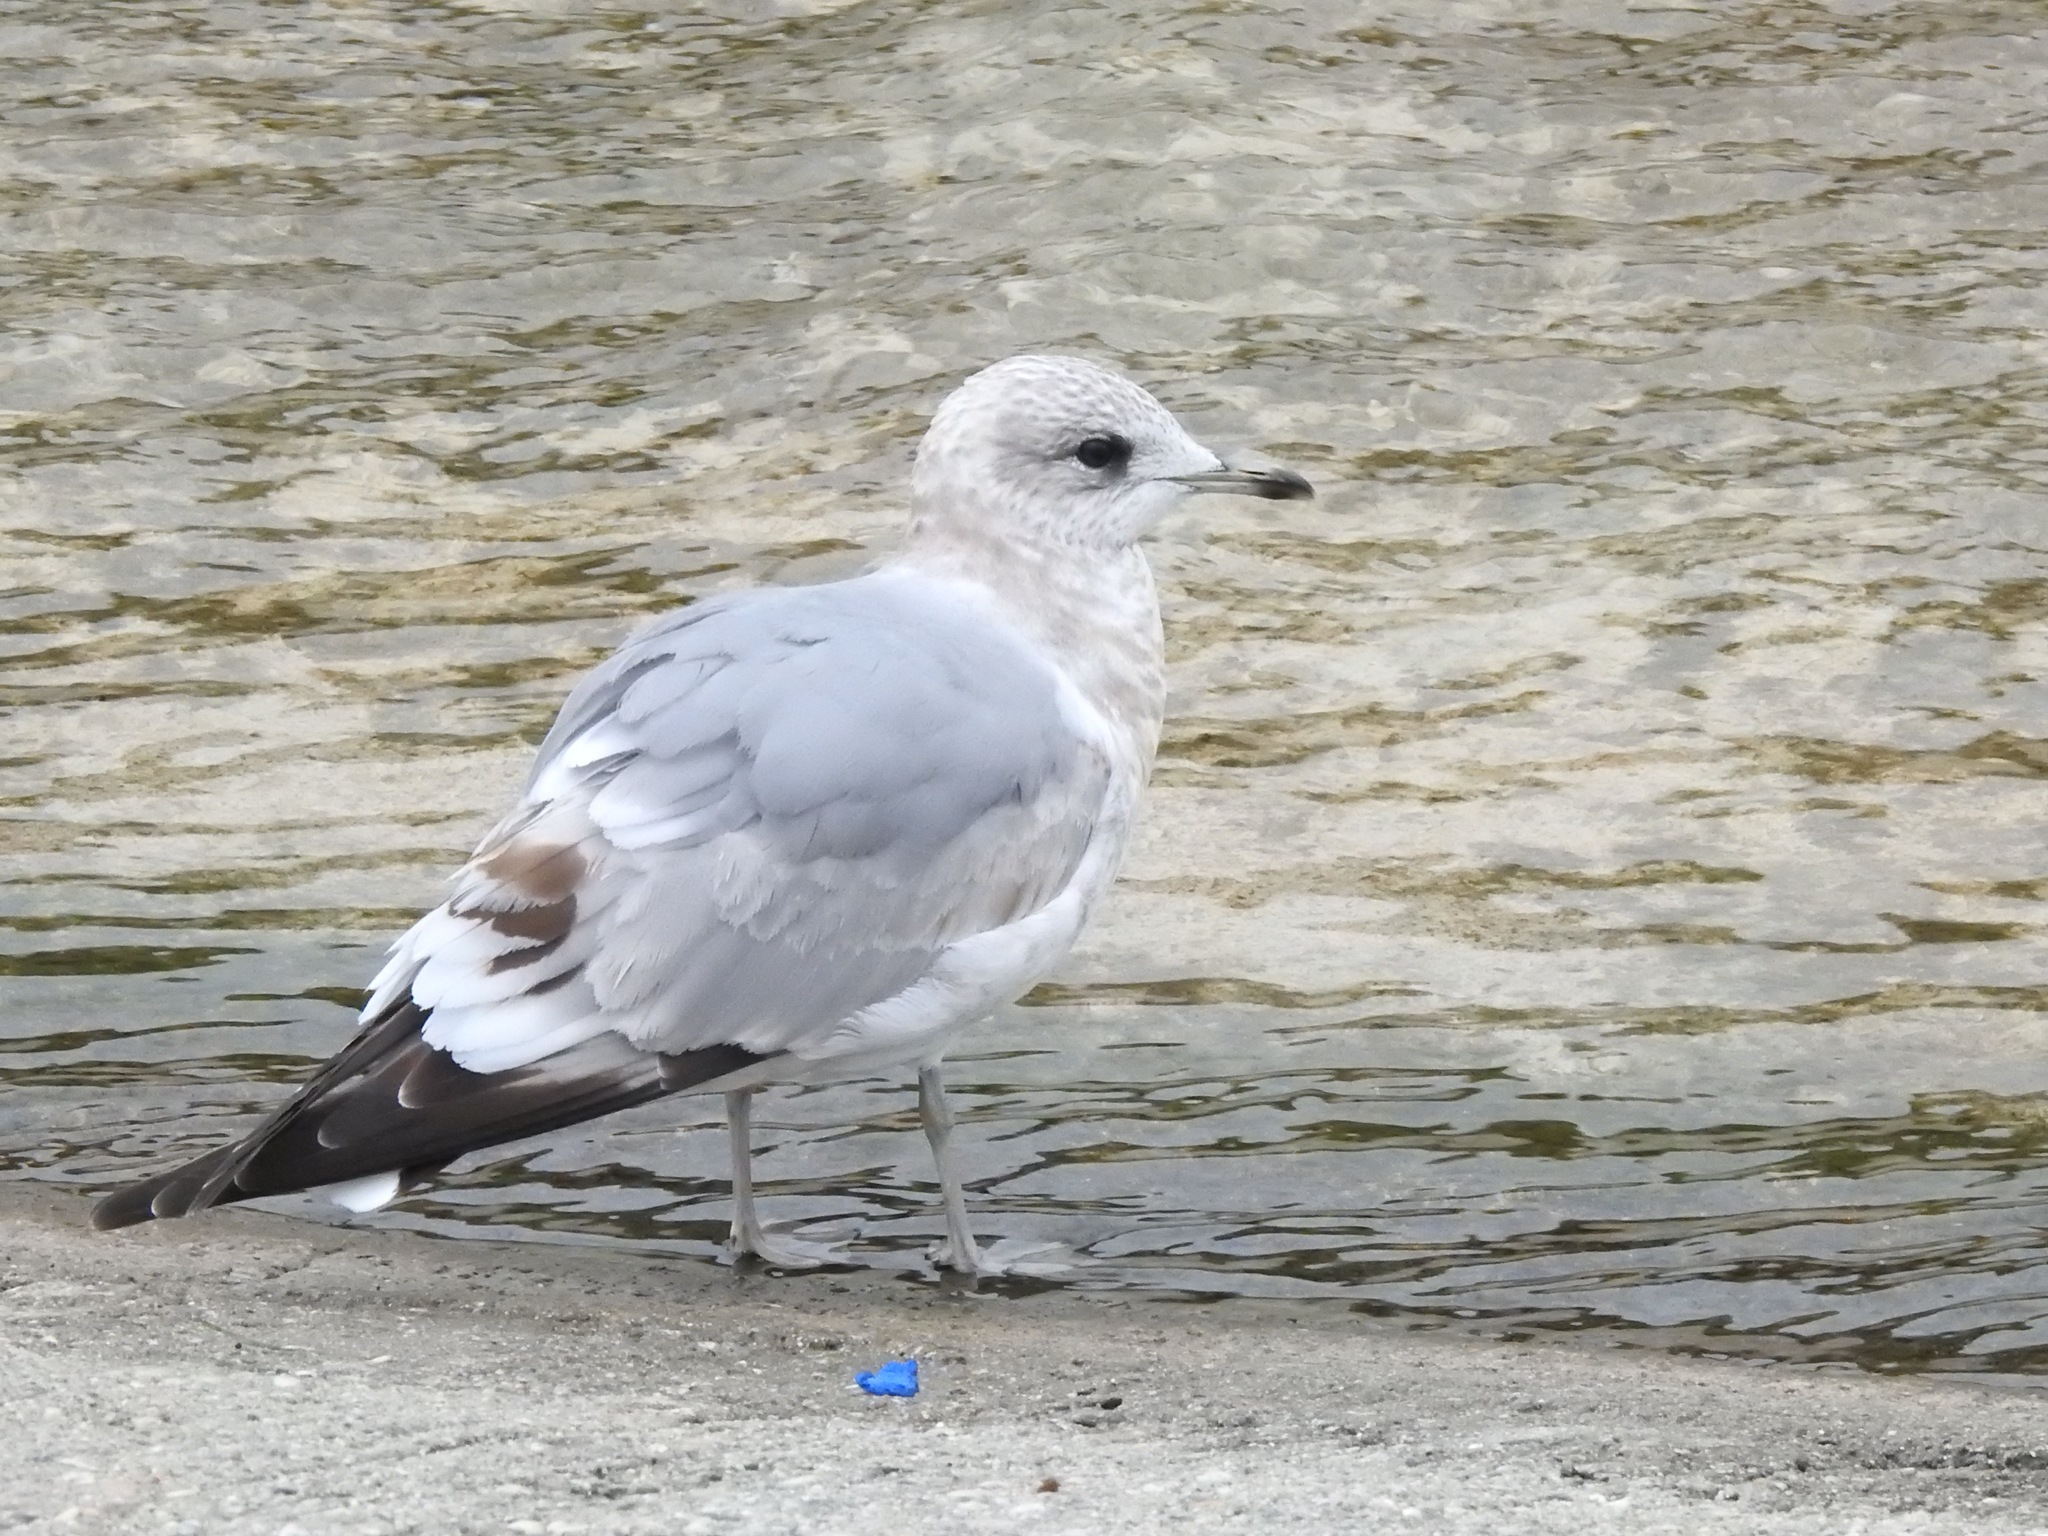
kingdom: Animalia
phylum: Chordata
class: Aves
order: Charadriiformes
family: Laridae
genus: Larus
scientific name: Larus brachyrhynchus
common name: Short-billed gull
